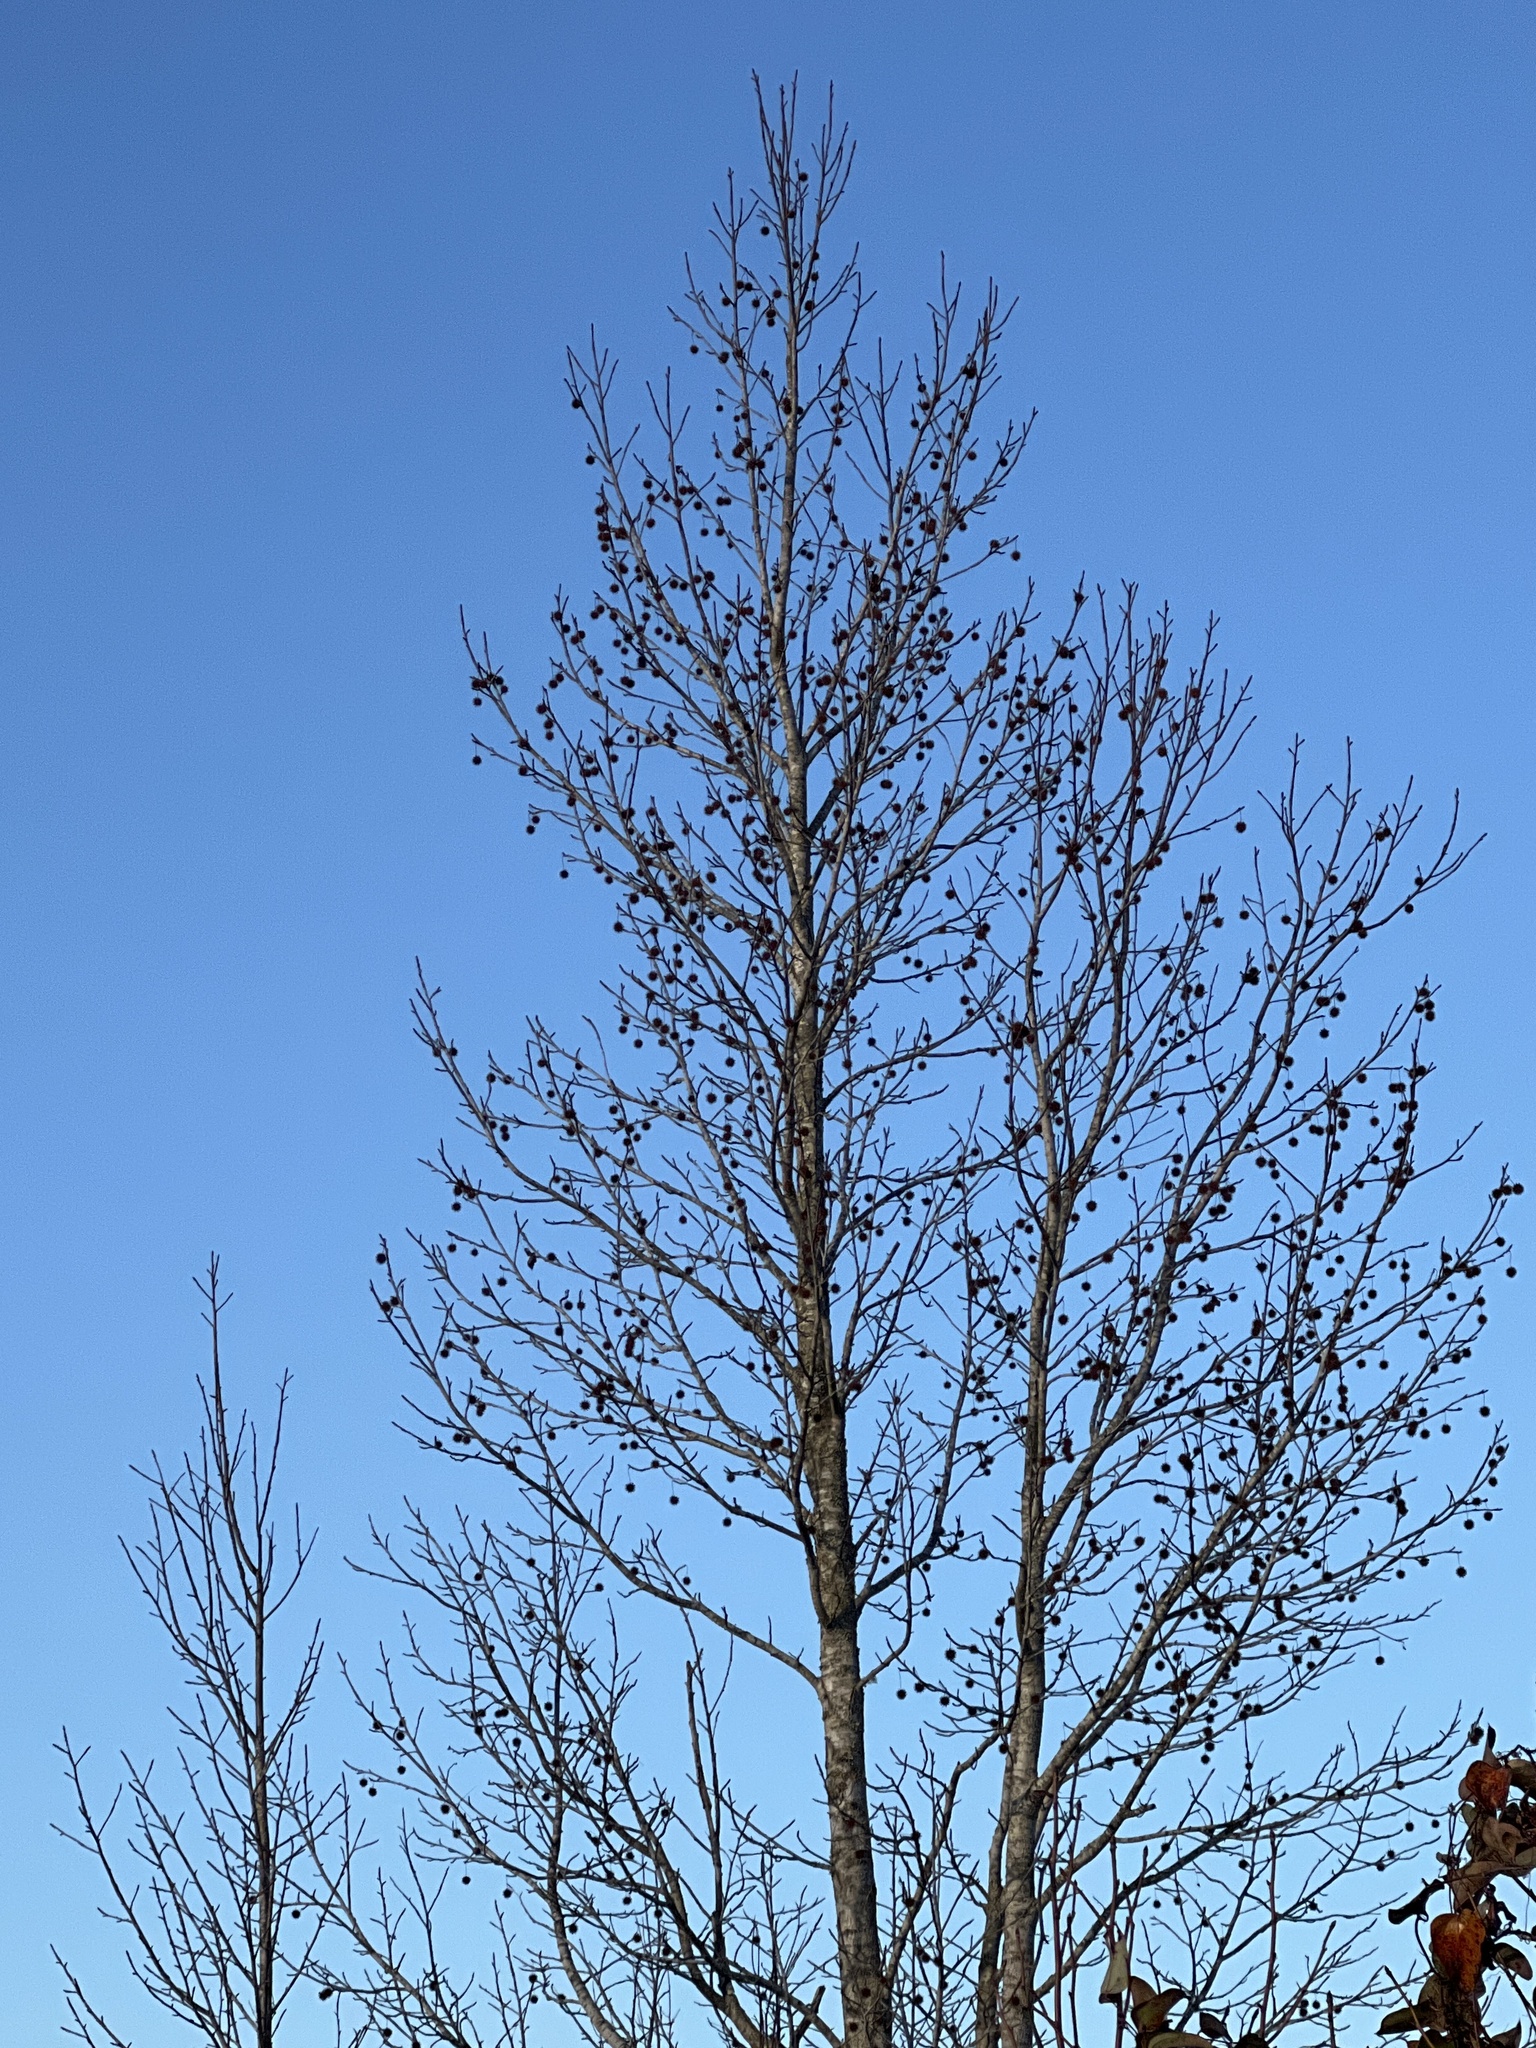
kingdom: Plantae
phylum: Tracheophyta
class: Magnoliopsida
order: Saxifragales
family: Altingiaceae
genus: Liquidambar
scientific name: Liquidambar styraciflua
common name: Sweet gum
